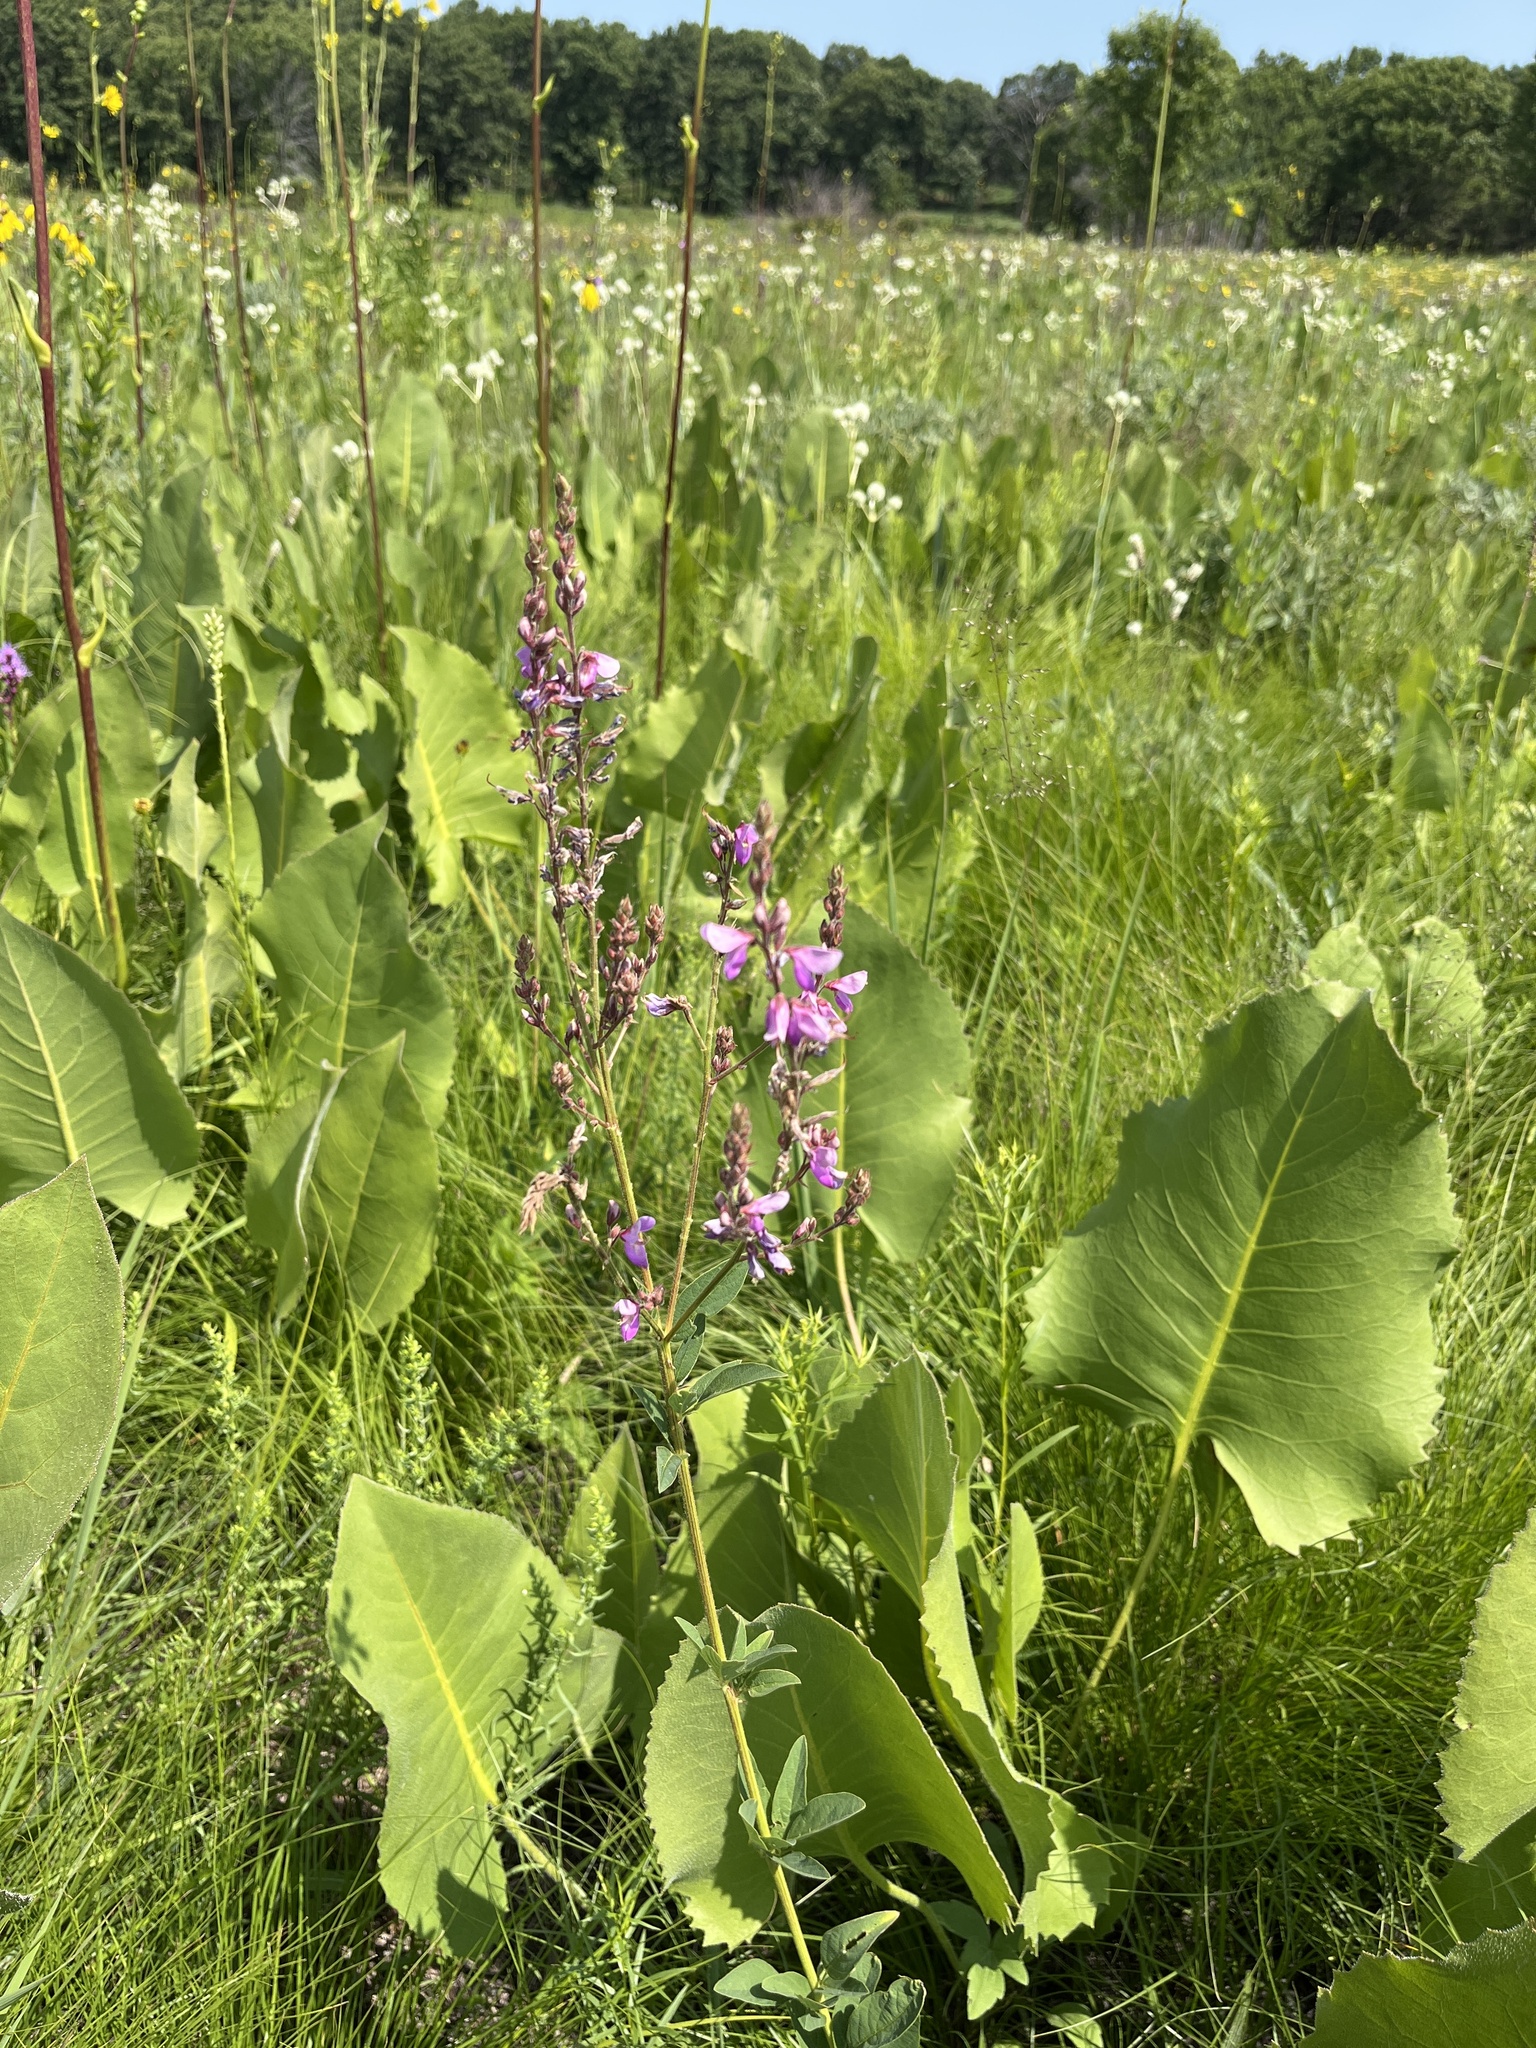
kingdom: Plantae
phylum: Tracheophyta
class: Magnoliopsida
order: Fabales
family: Fabaceae
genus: Desmodium
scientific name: Desmodium canadense
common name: Canada tick-trefoil
